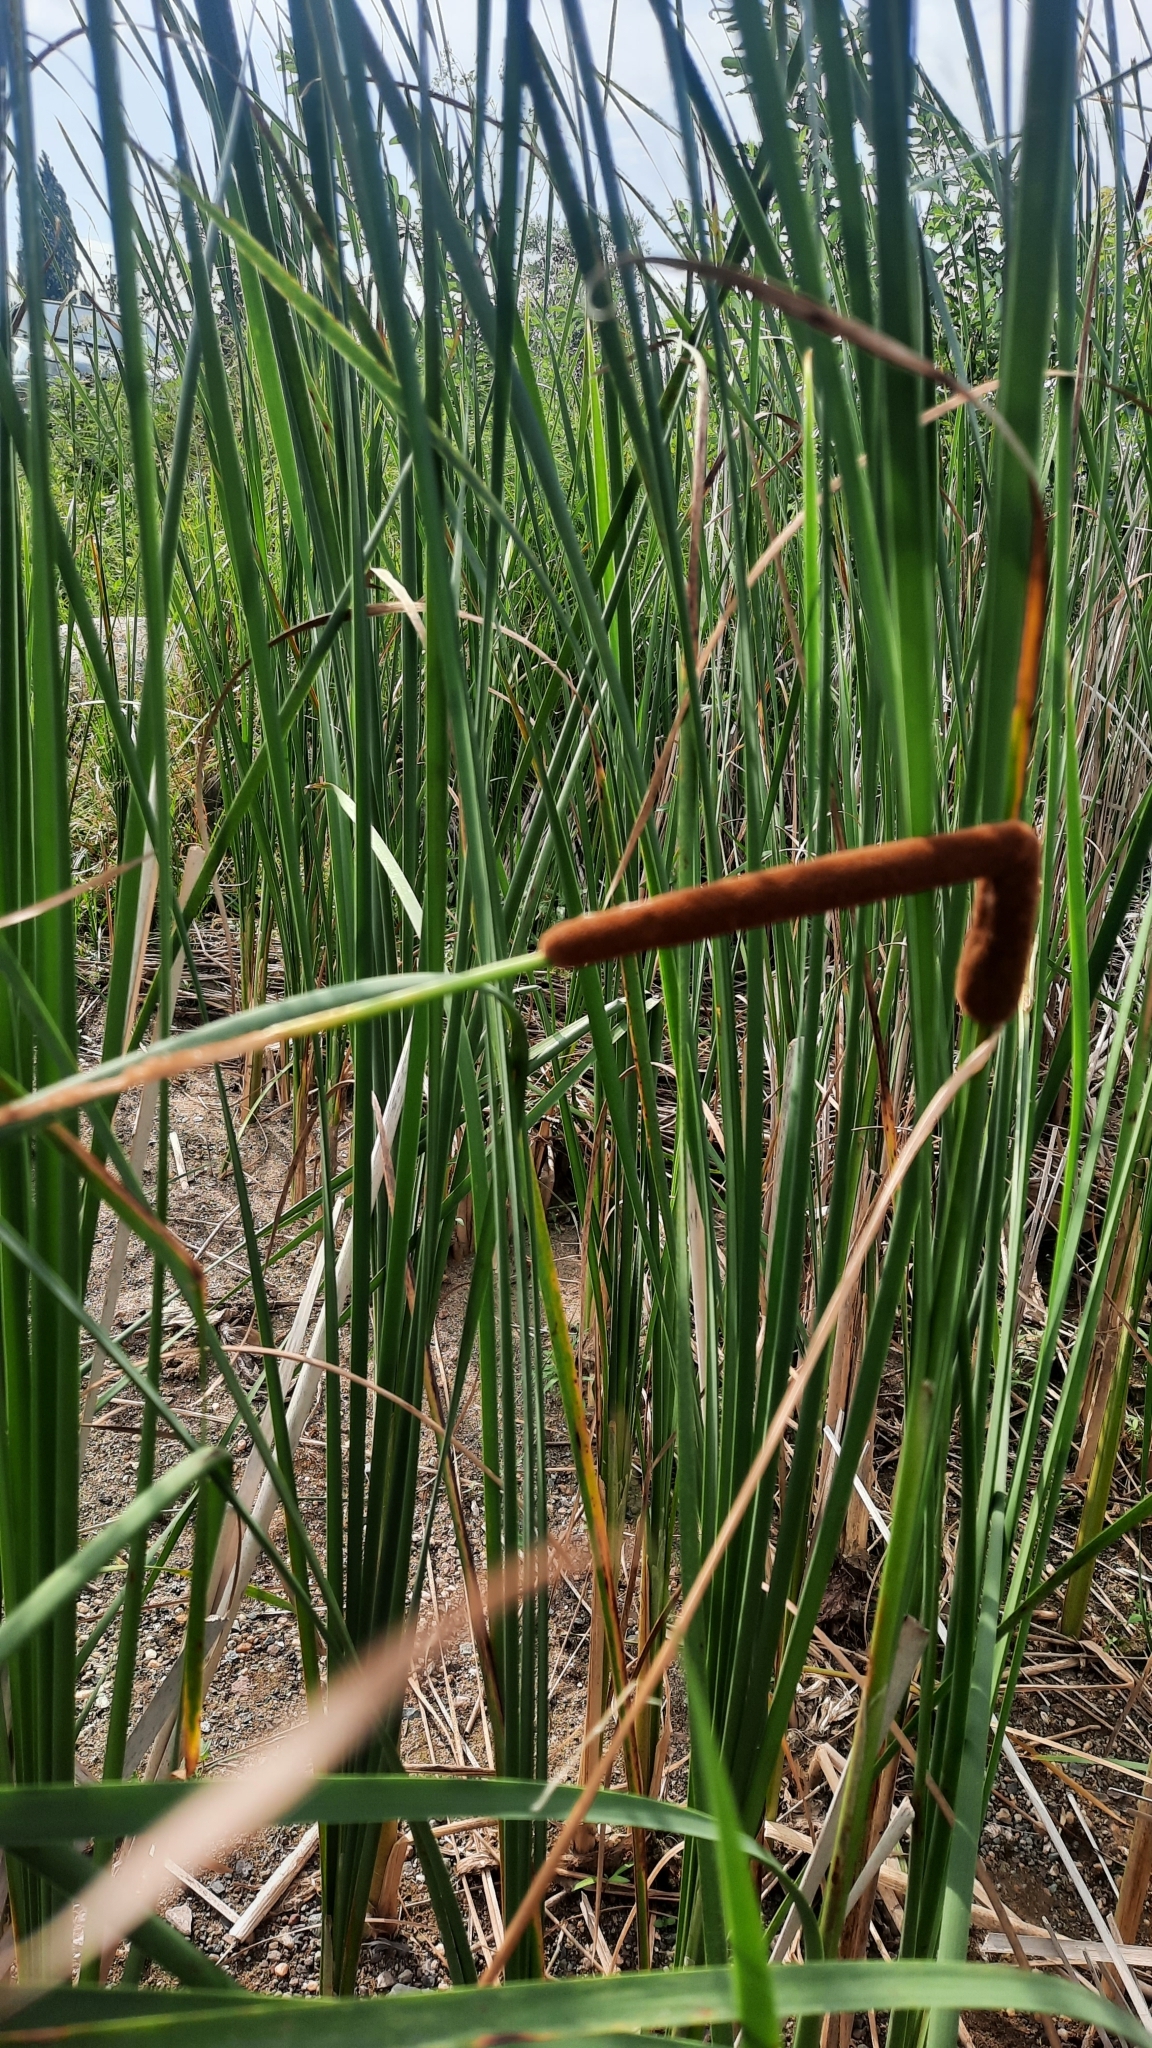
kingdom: Plantae
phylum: Tracheophyta
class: Liliopsida
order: Poales
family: Typhaceae
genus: Typha
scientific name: Typha angustifolia
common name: Lesser bulrush
